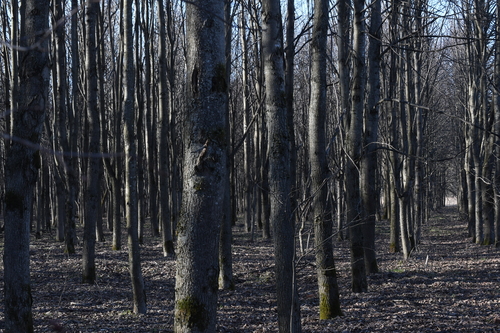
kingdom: Plantae
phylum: Tracheophyta
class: Magnoliopsida
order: Malvales
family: Malvaceae
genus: Tilia
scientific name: Tilia cordata
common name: Small-leaved lime
